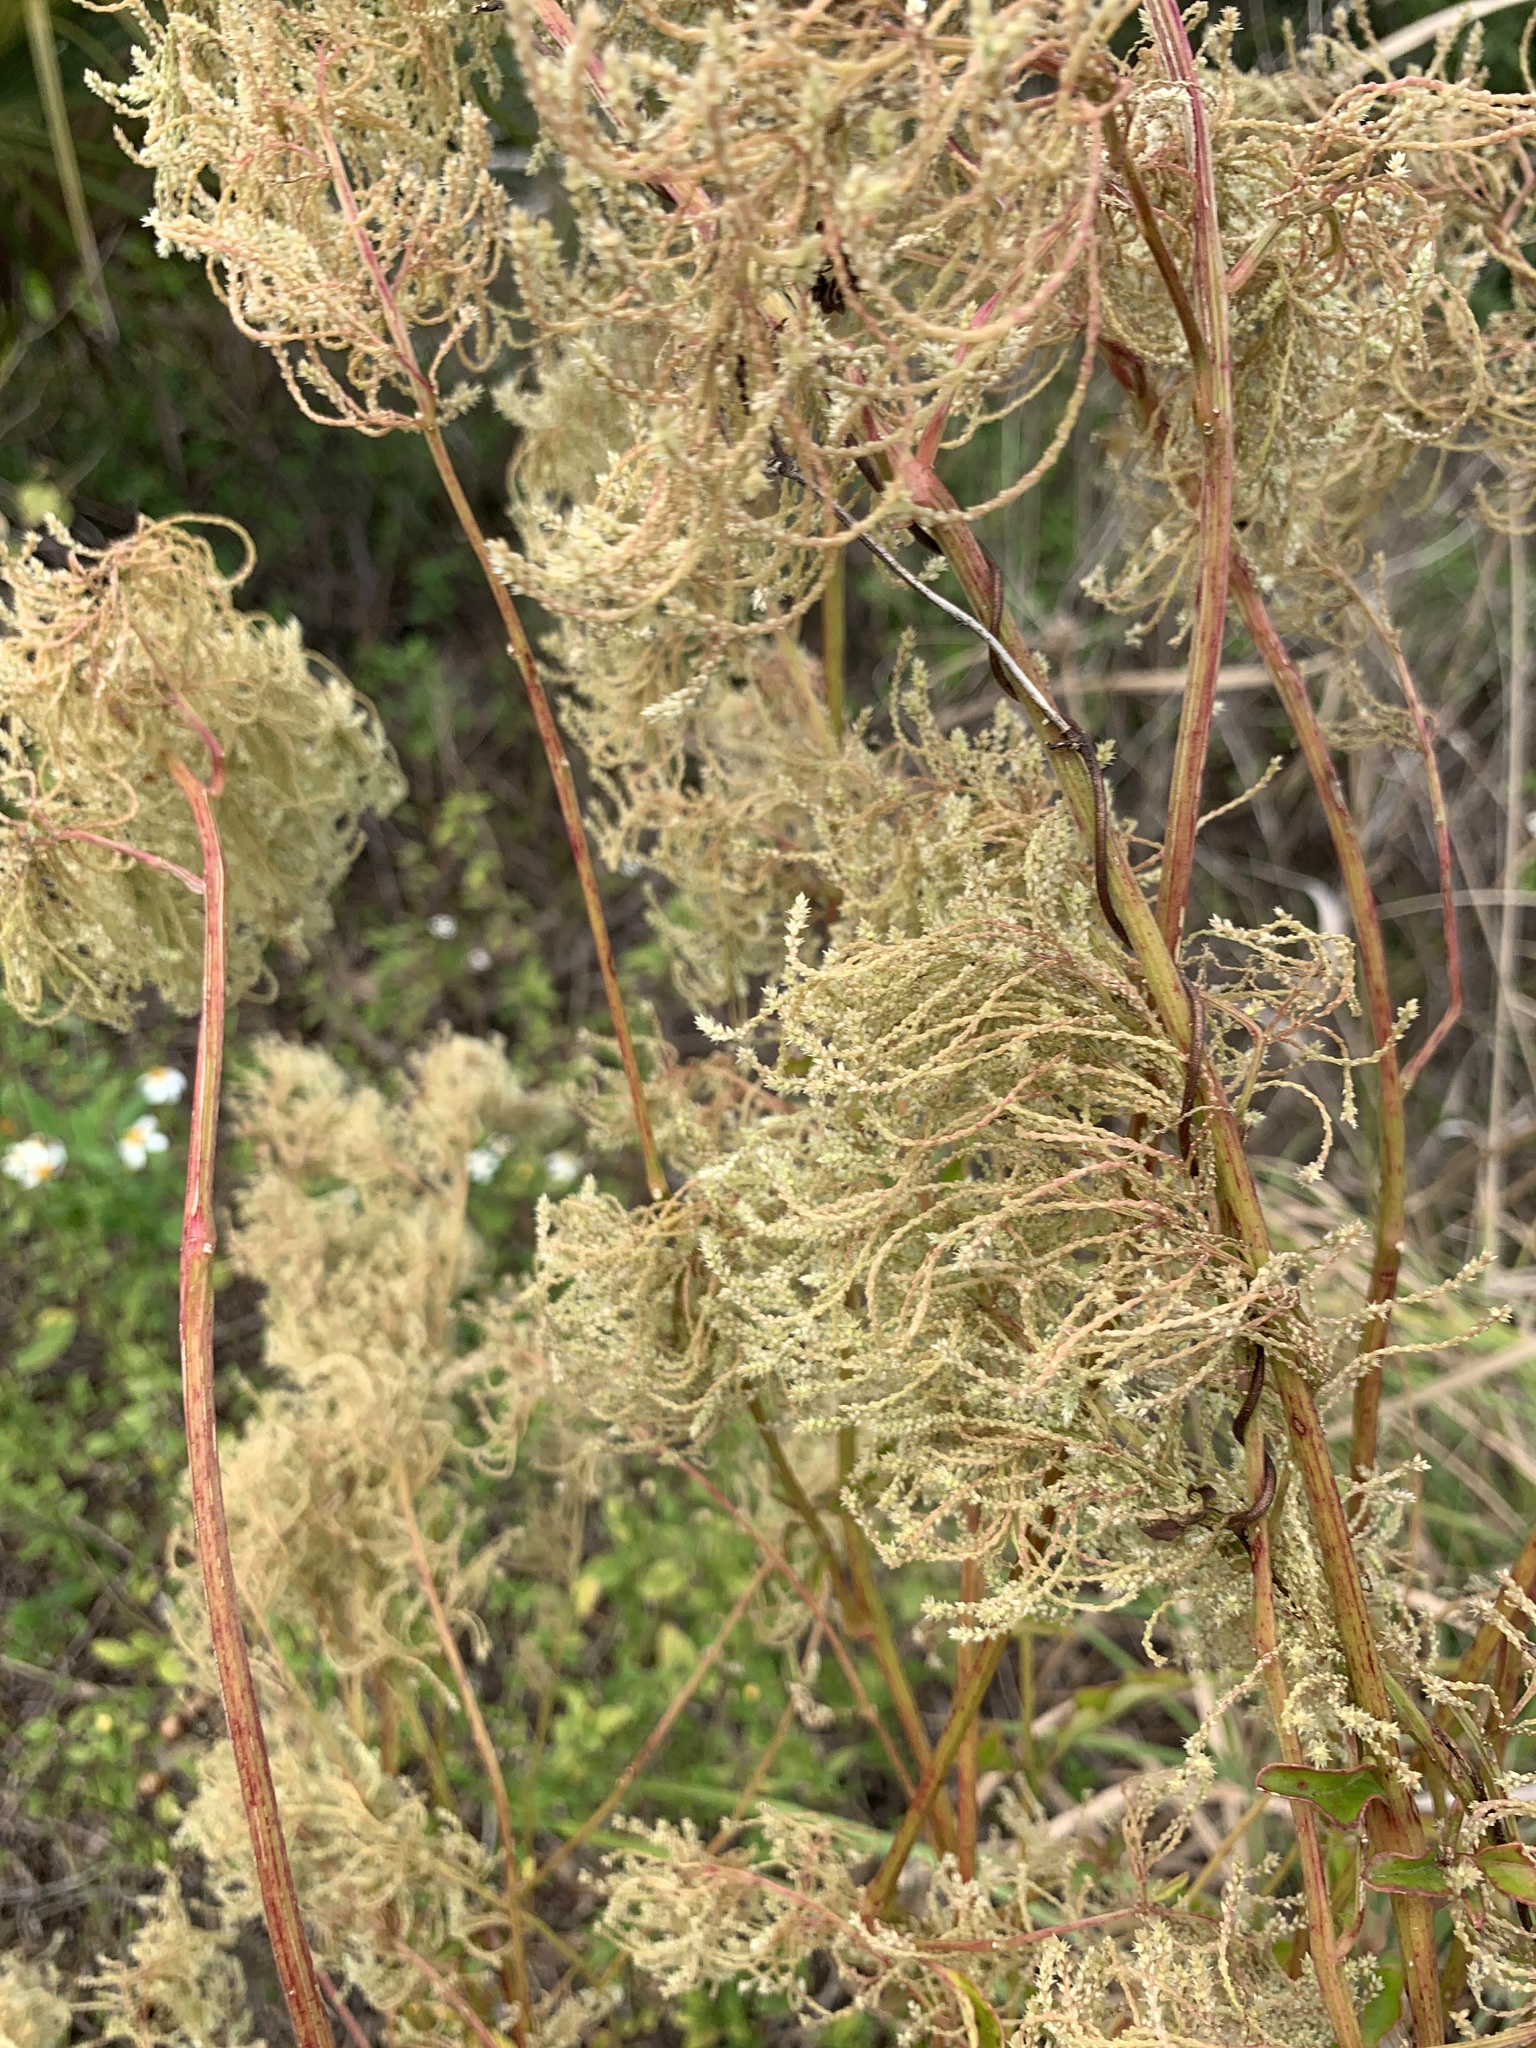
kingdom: Plantae
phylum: Tracheophyta
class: Magnoliopsida
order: Caryophyllales
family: Amaranthaceae
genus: Iresine
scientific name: Iresine diffusa
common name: Juba's-bush
